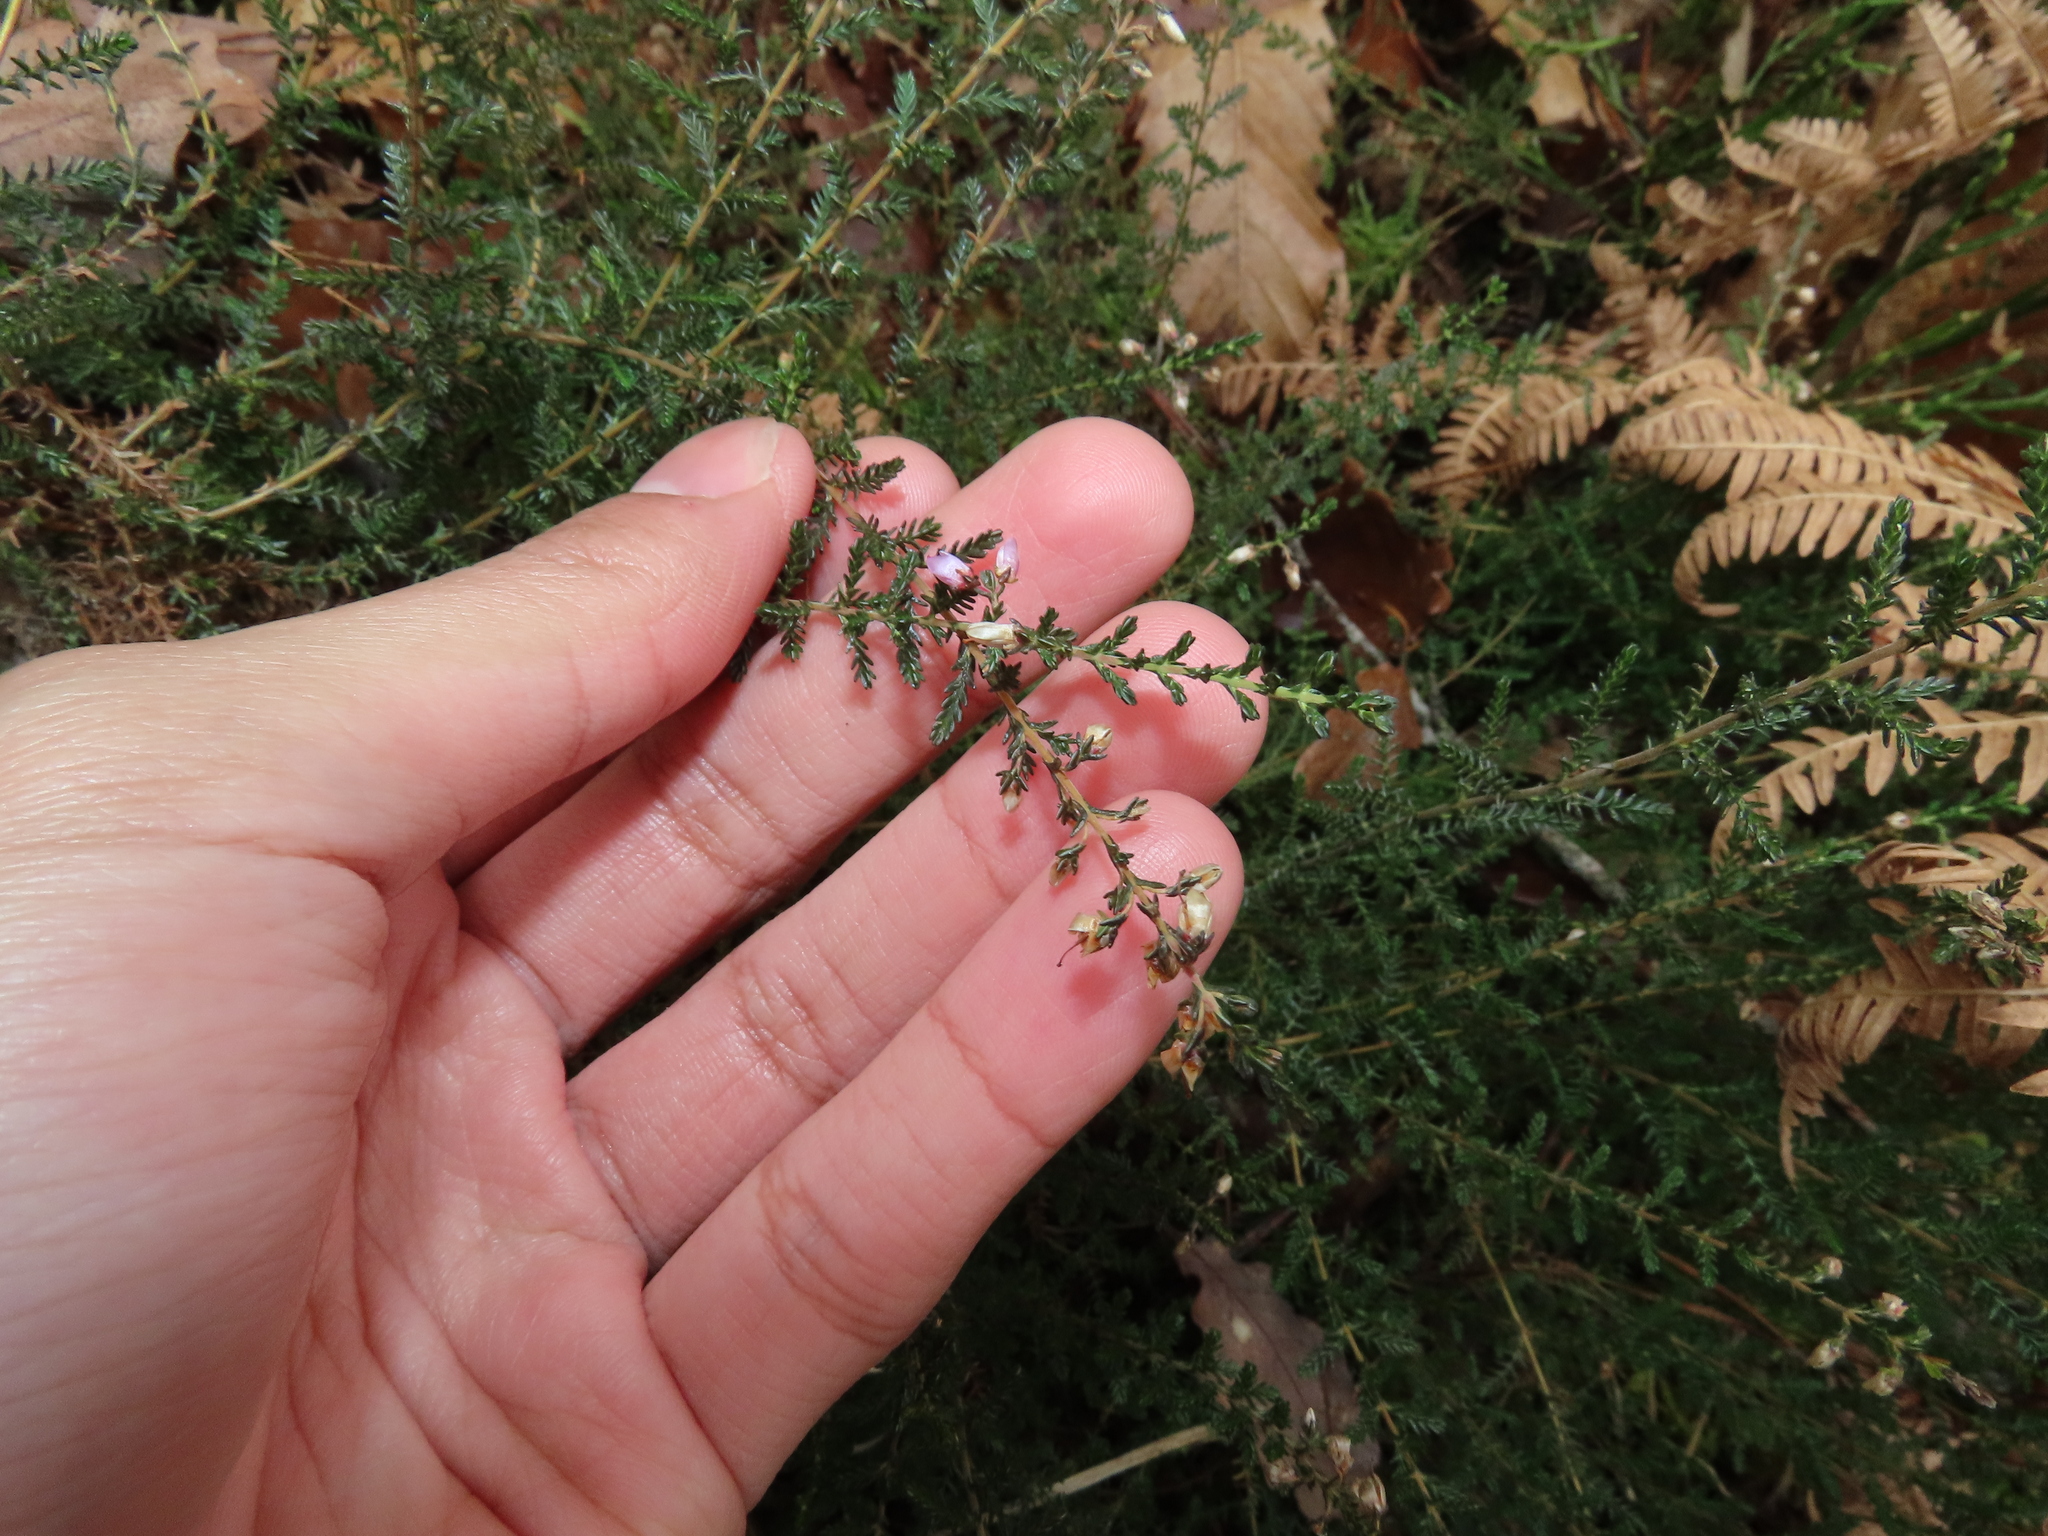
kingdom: Plantae
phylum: Tracheophyta
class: Magnoliopsida
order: Ericales
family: Ericaceae
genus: Calluna
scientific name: Calluna vulgaris
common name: Heather
